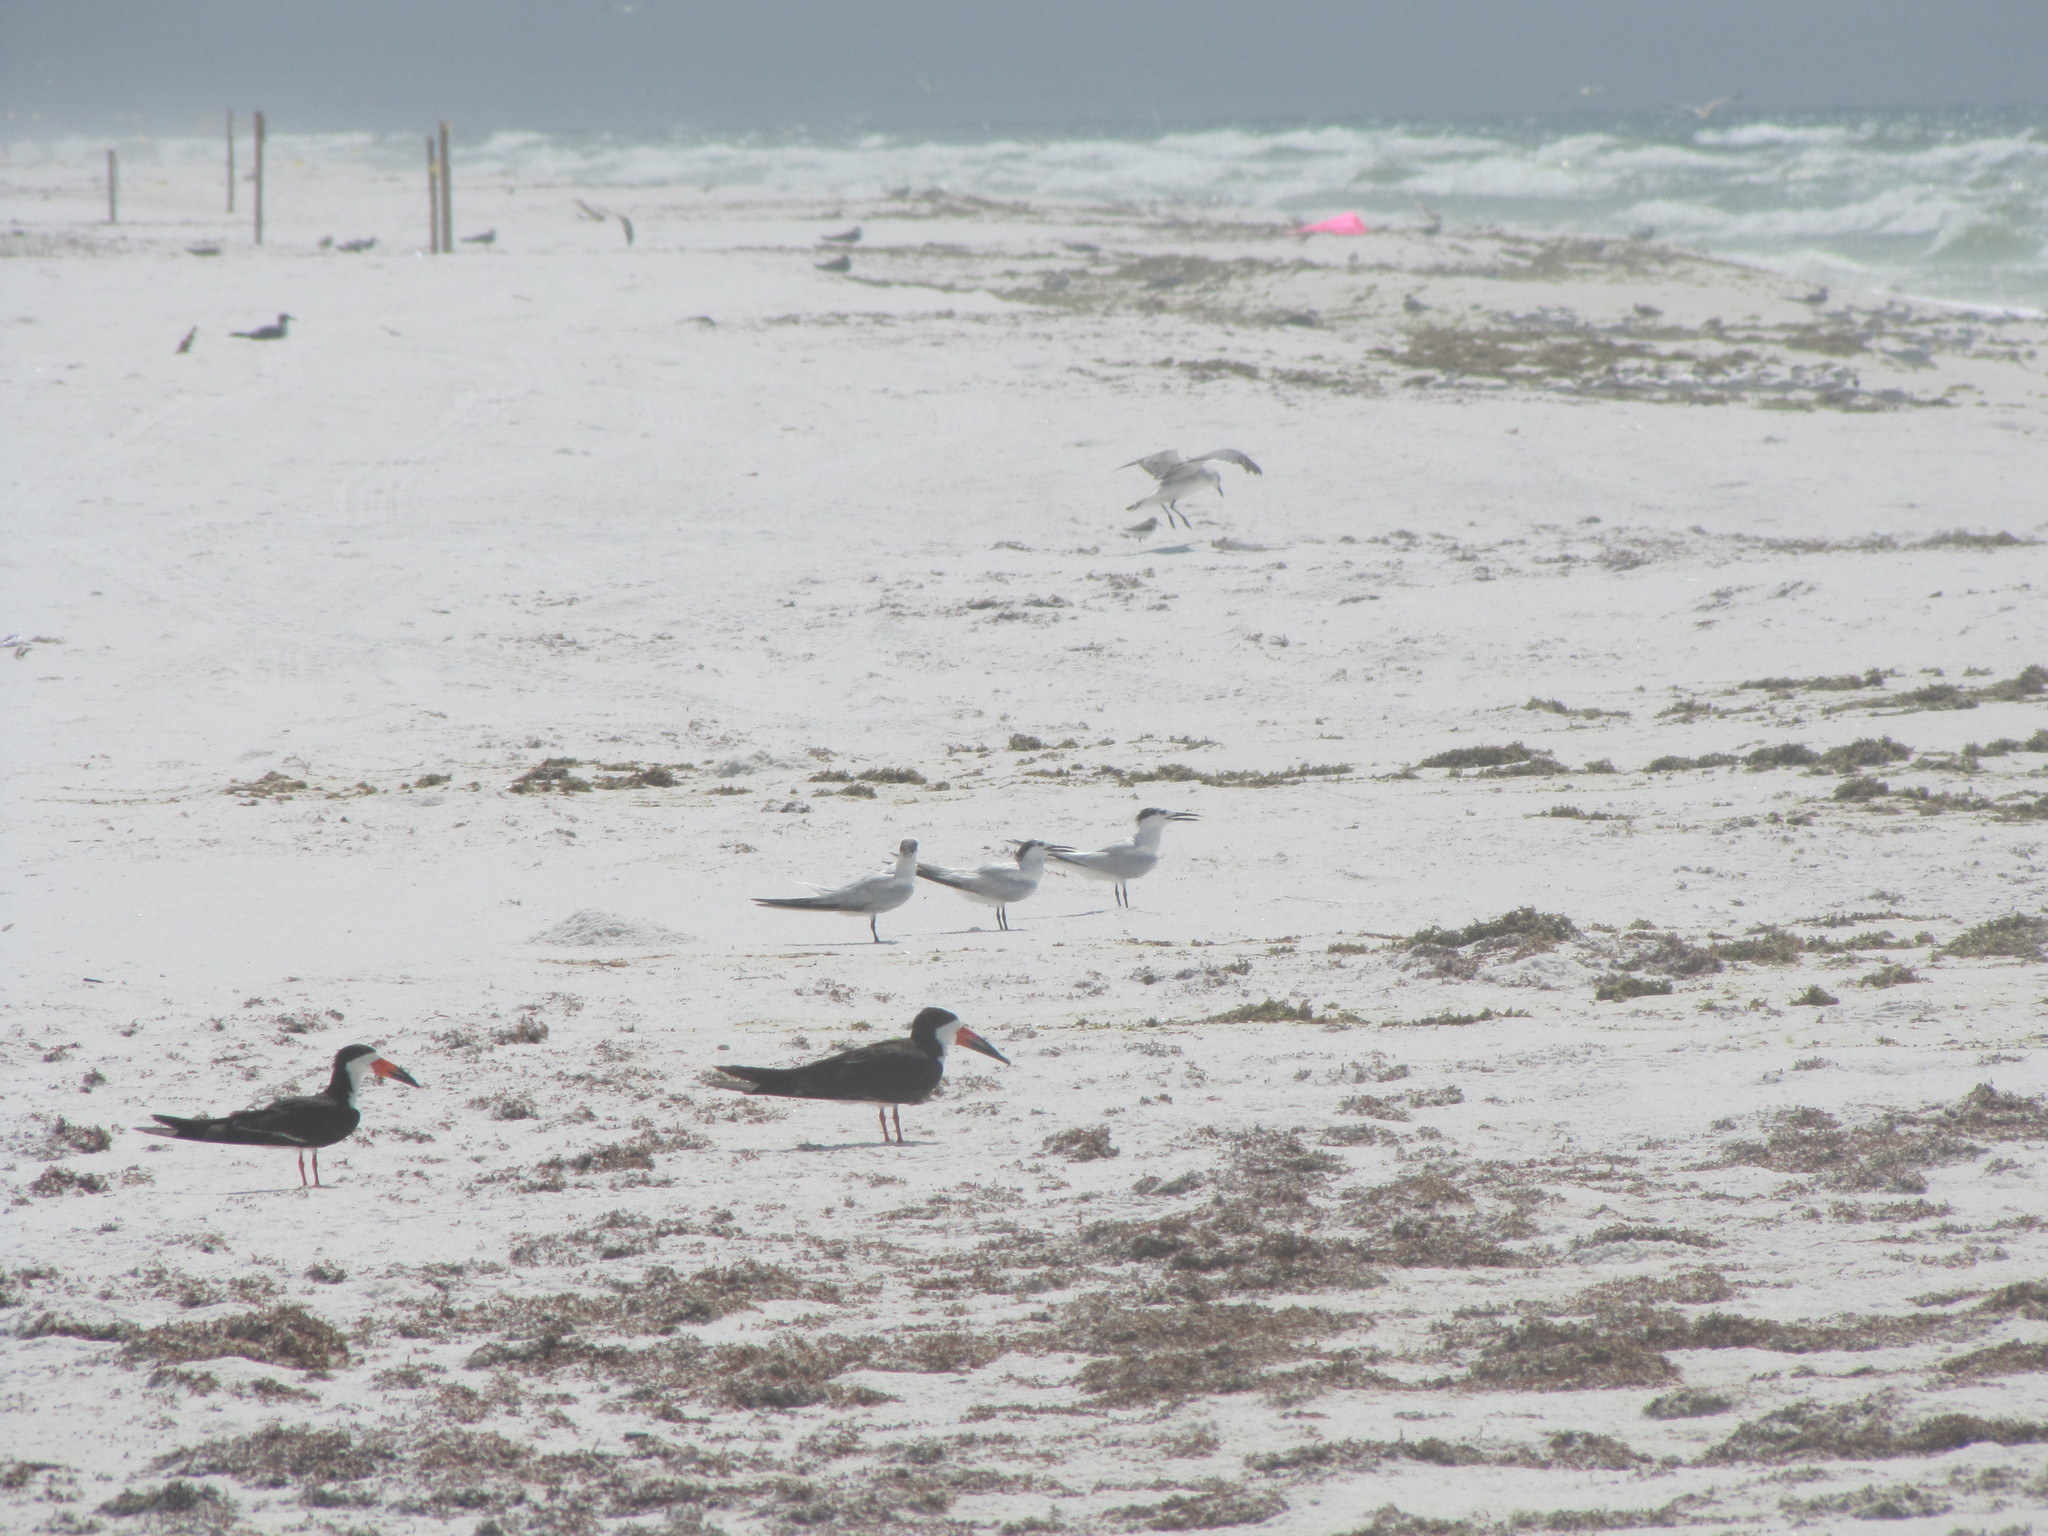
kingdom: Animalia
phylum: Chordata
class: Aves
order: Charadriiformes
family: Laridae
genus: Rynchops
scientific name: Rynchops niger
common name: Black skimmer
